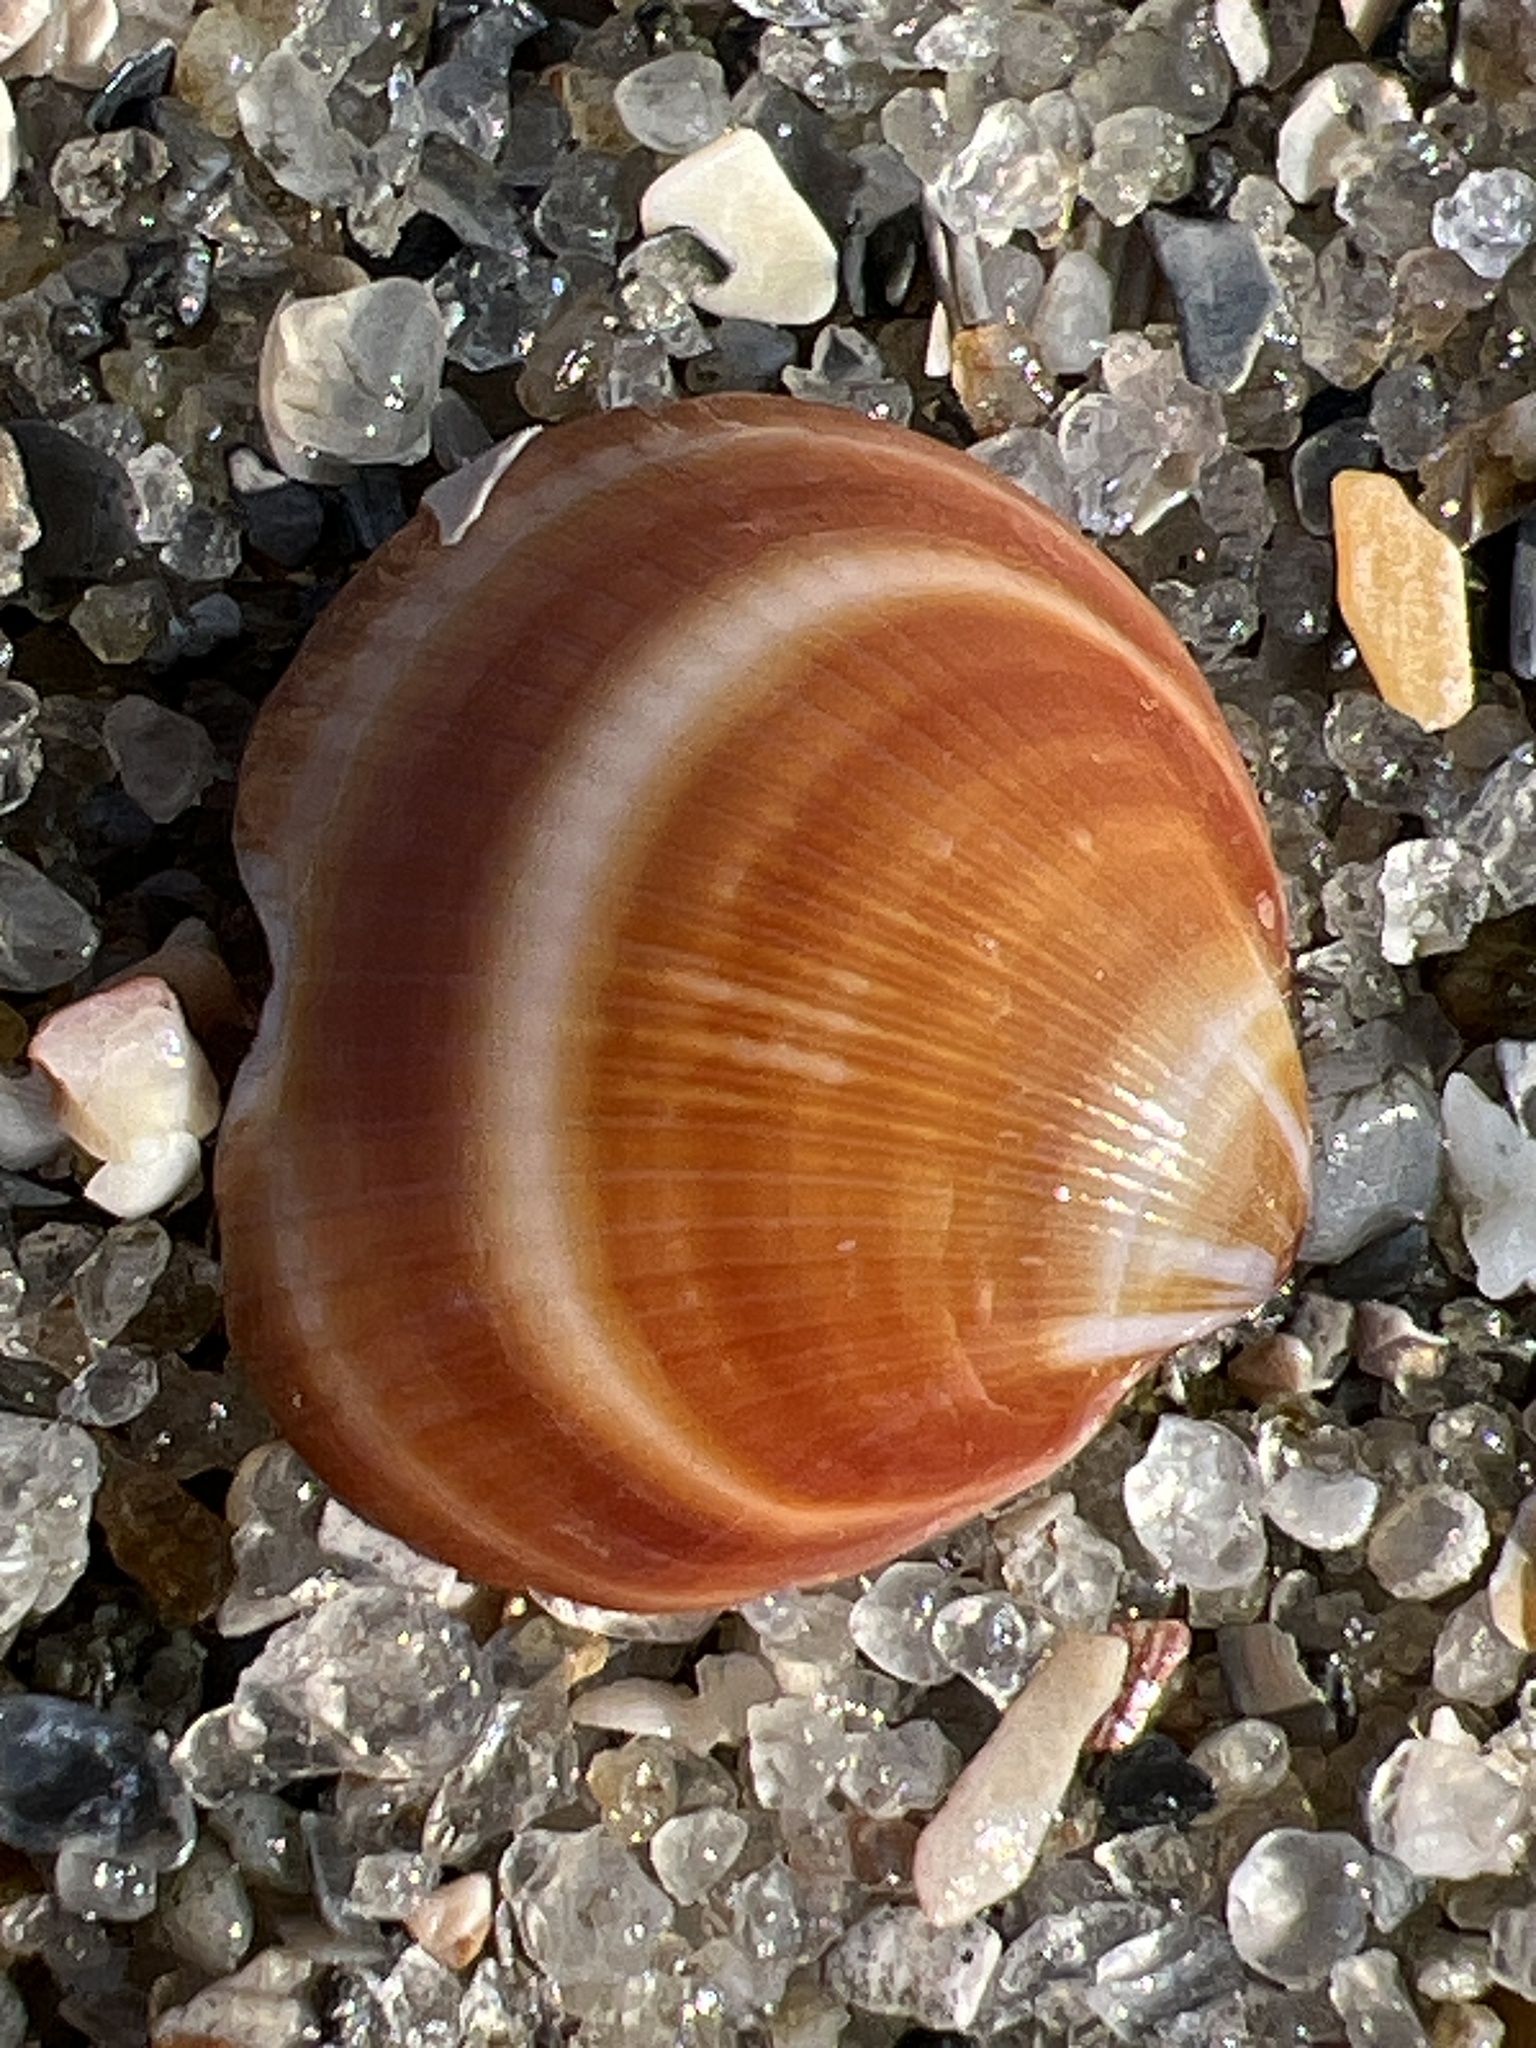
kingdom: Animalia
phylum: Mollusca
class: Bivalvia
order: Arcida
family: Glycymerididae
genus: Glycymeris
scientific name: Glycymeris spectralis
